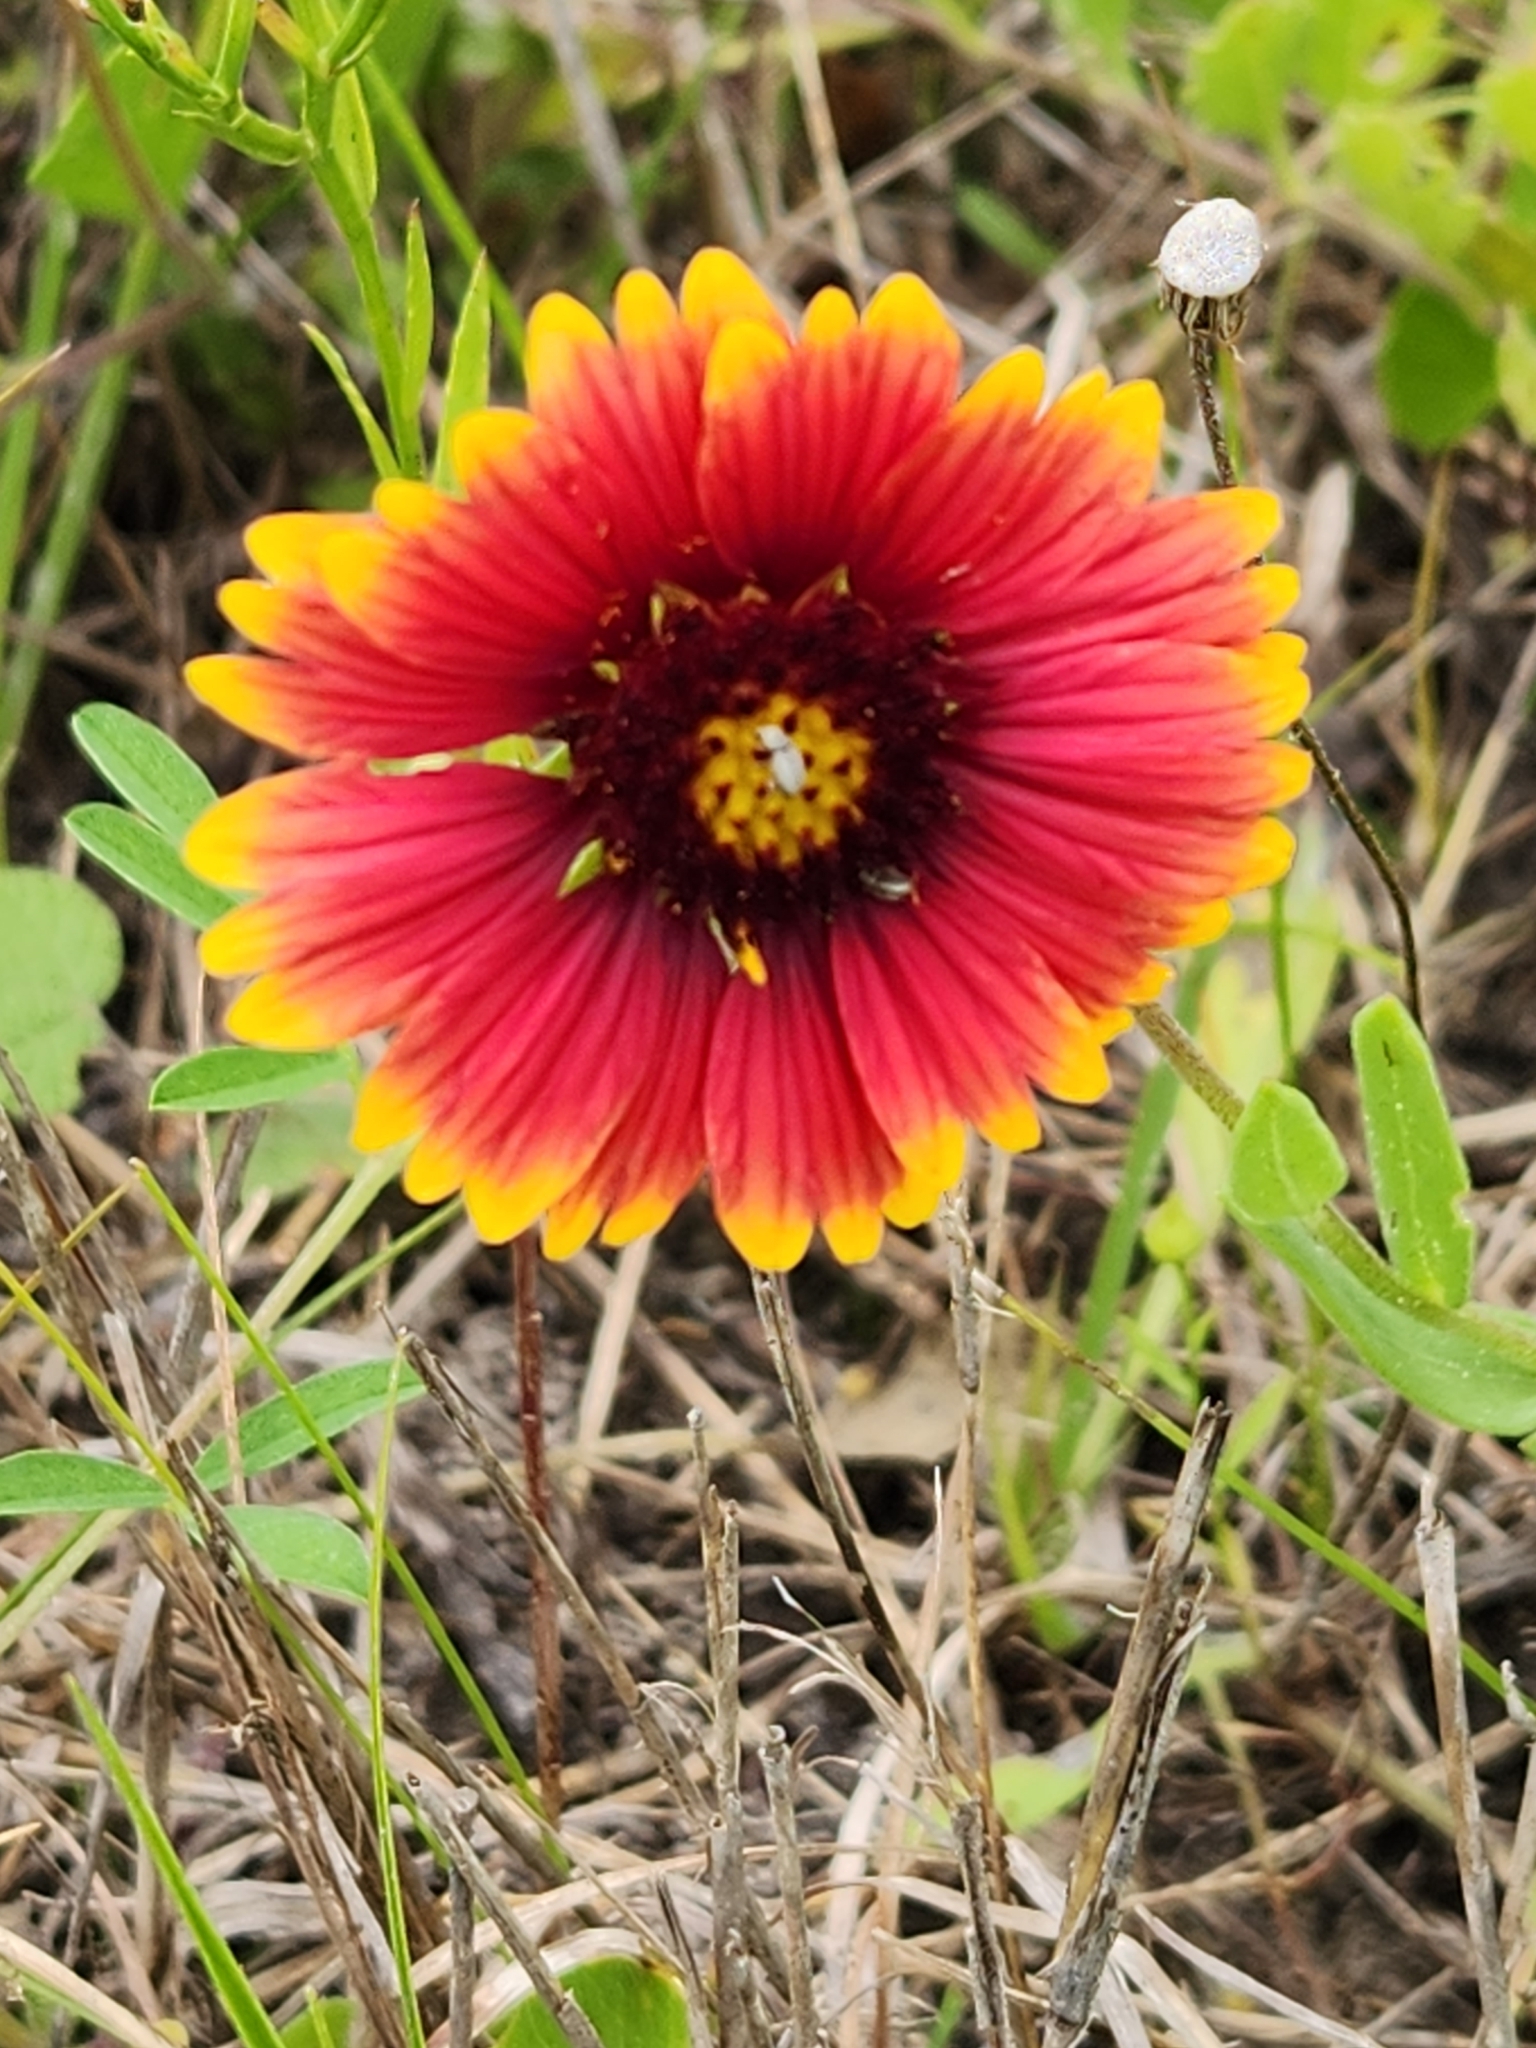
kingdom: Plantae
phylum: Tracheophyta
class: Magnoliopsida
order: Asterales
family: Asteraceae
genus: Gaillardia
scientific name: Gaillardia pulchella
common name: Firewheel
